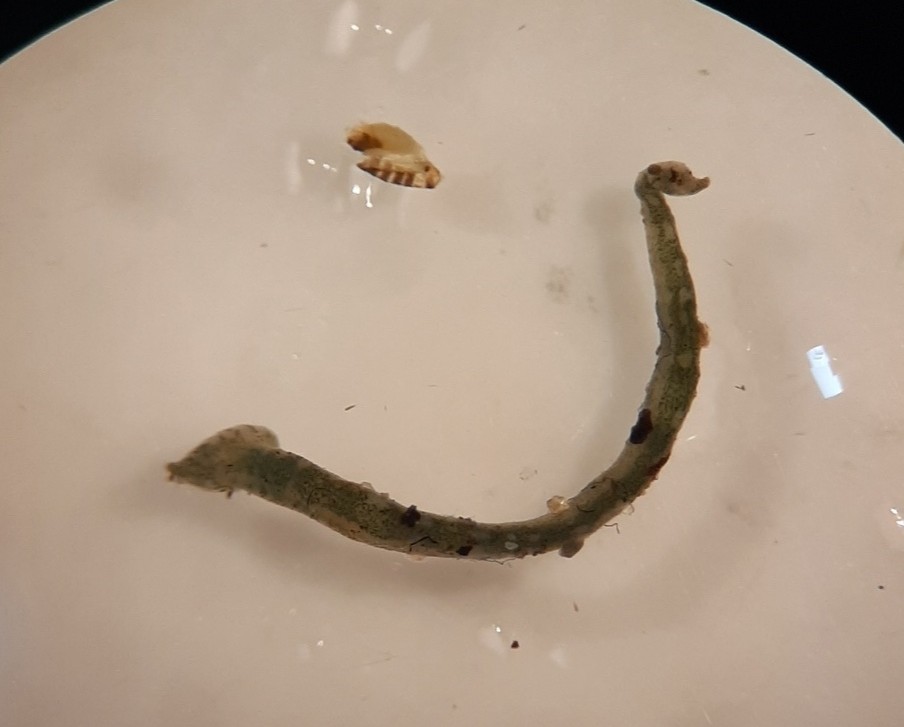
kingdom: Animalia
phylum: Annelida
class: Clitellata
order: Rhynchobdellida
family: Piscicolidae
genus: Piscicola
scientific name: Piscicola geometra
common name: Fish leech
